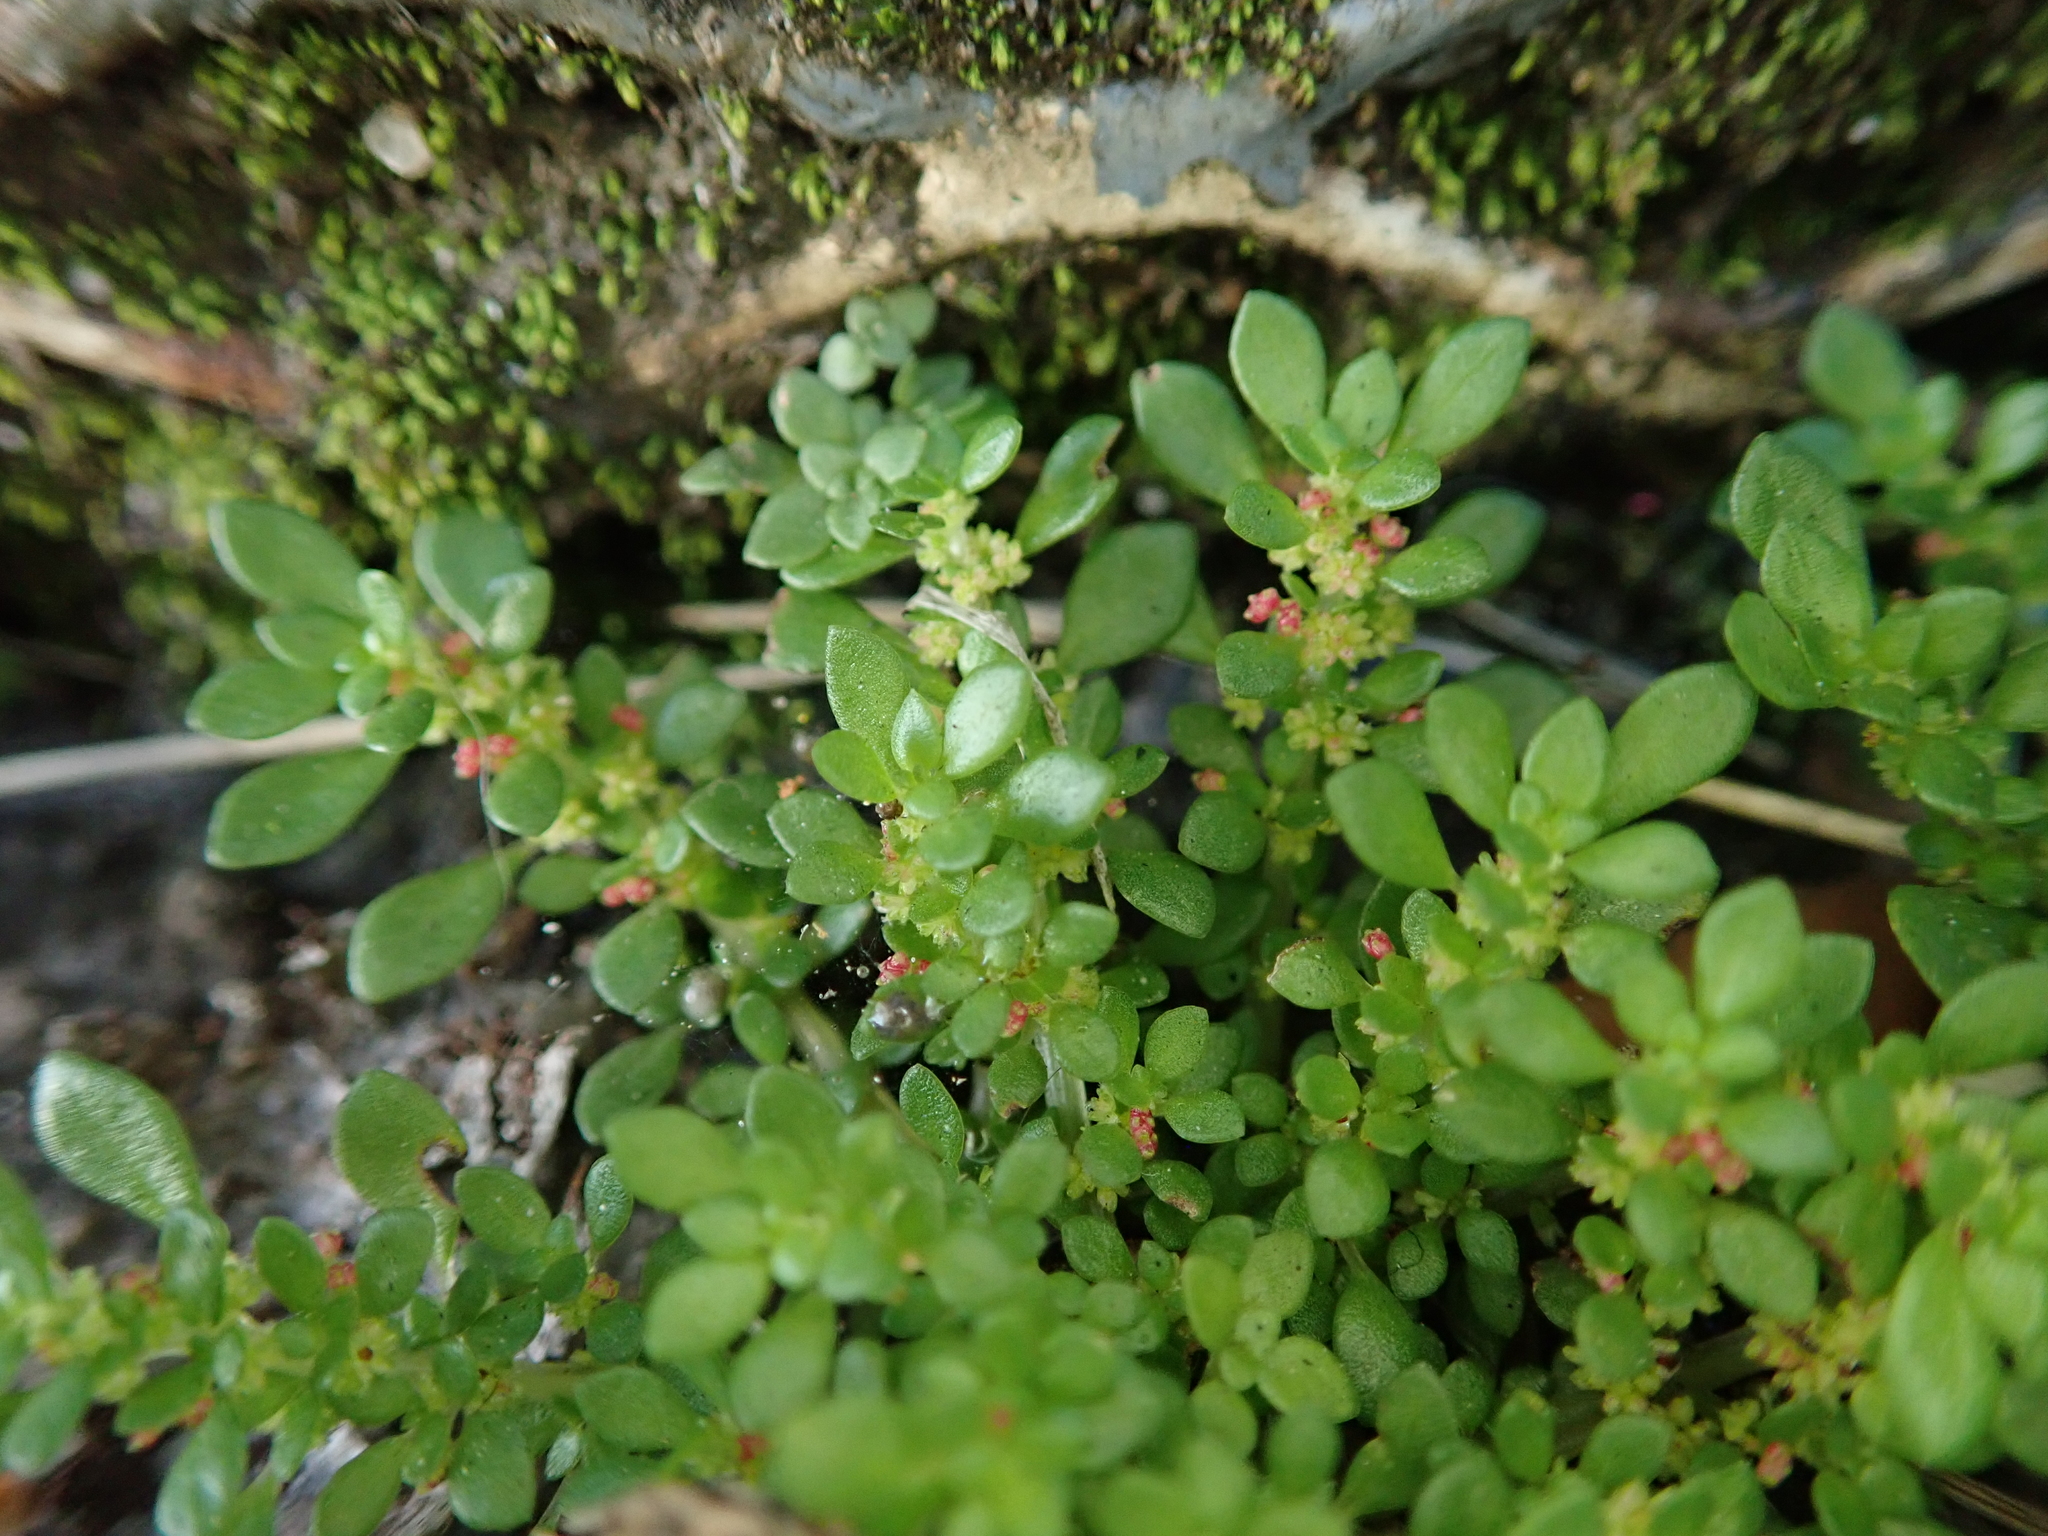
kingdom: Plantae
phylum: Tracheophyta
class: Magnoliopsida
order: Rosales
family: Urticaceae
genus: Pilea
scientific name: Pilea microphylla
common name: Artillery-plant
